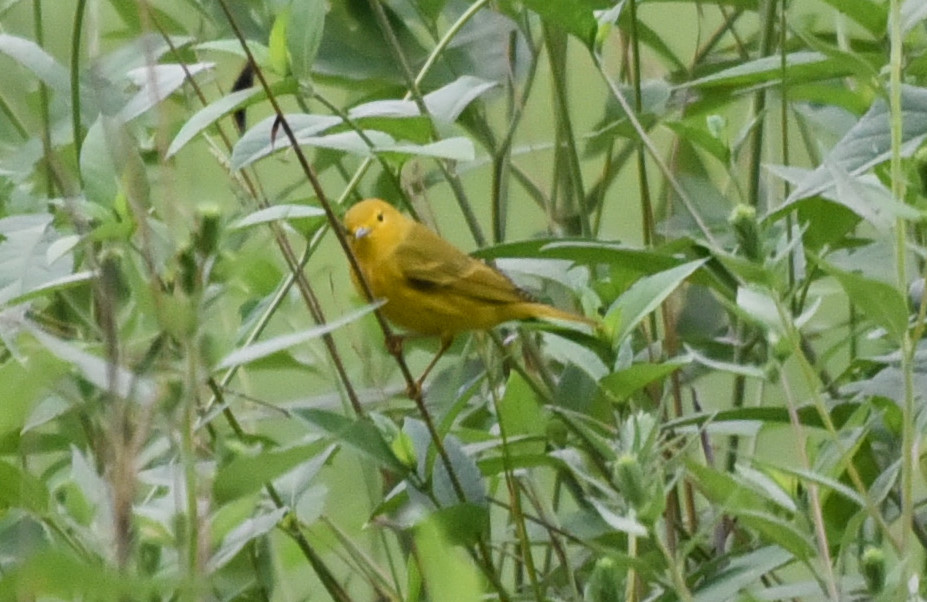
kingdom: Animalia
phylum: Chordata
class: Aves
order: Passeriformes
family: Parulidae
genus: Setophaga
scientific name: Setophaga petechia
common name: Yellow warbler
